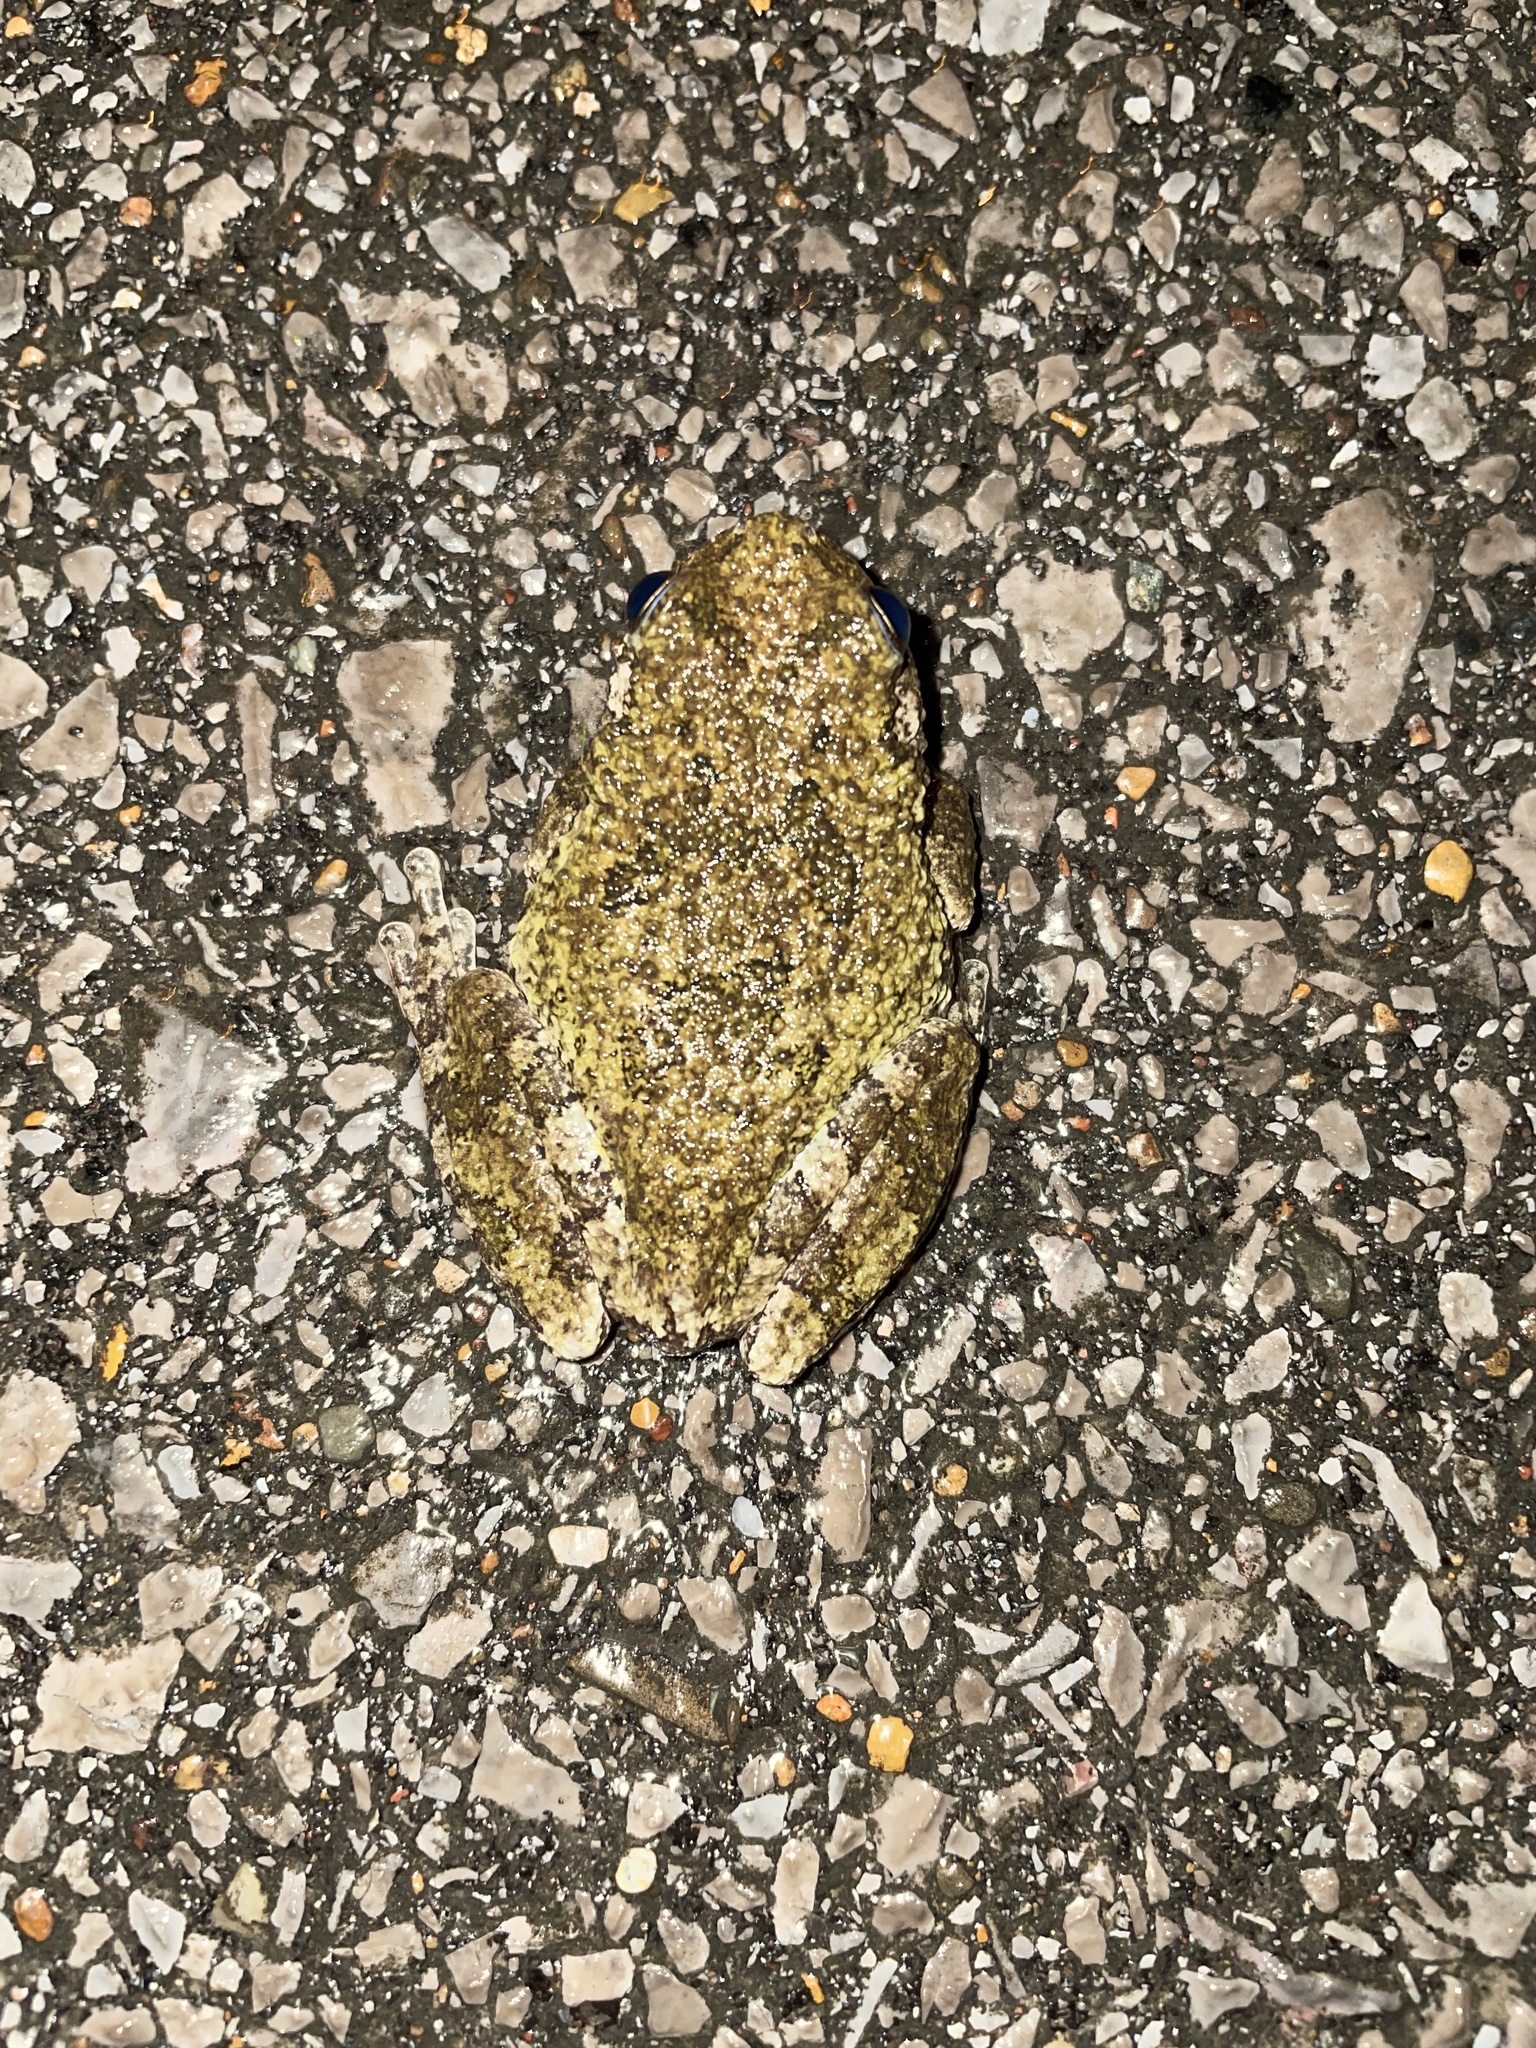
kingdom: Animalia
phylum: Chordata
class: Amphibia
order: Anura
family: Hylidae
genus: Dryophytes
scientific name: Dryophytes chrysoscelis
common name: Cope's gray treefrog
